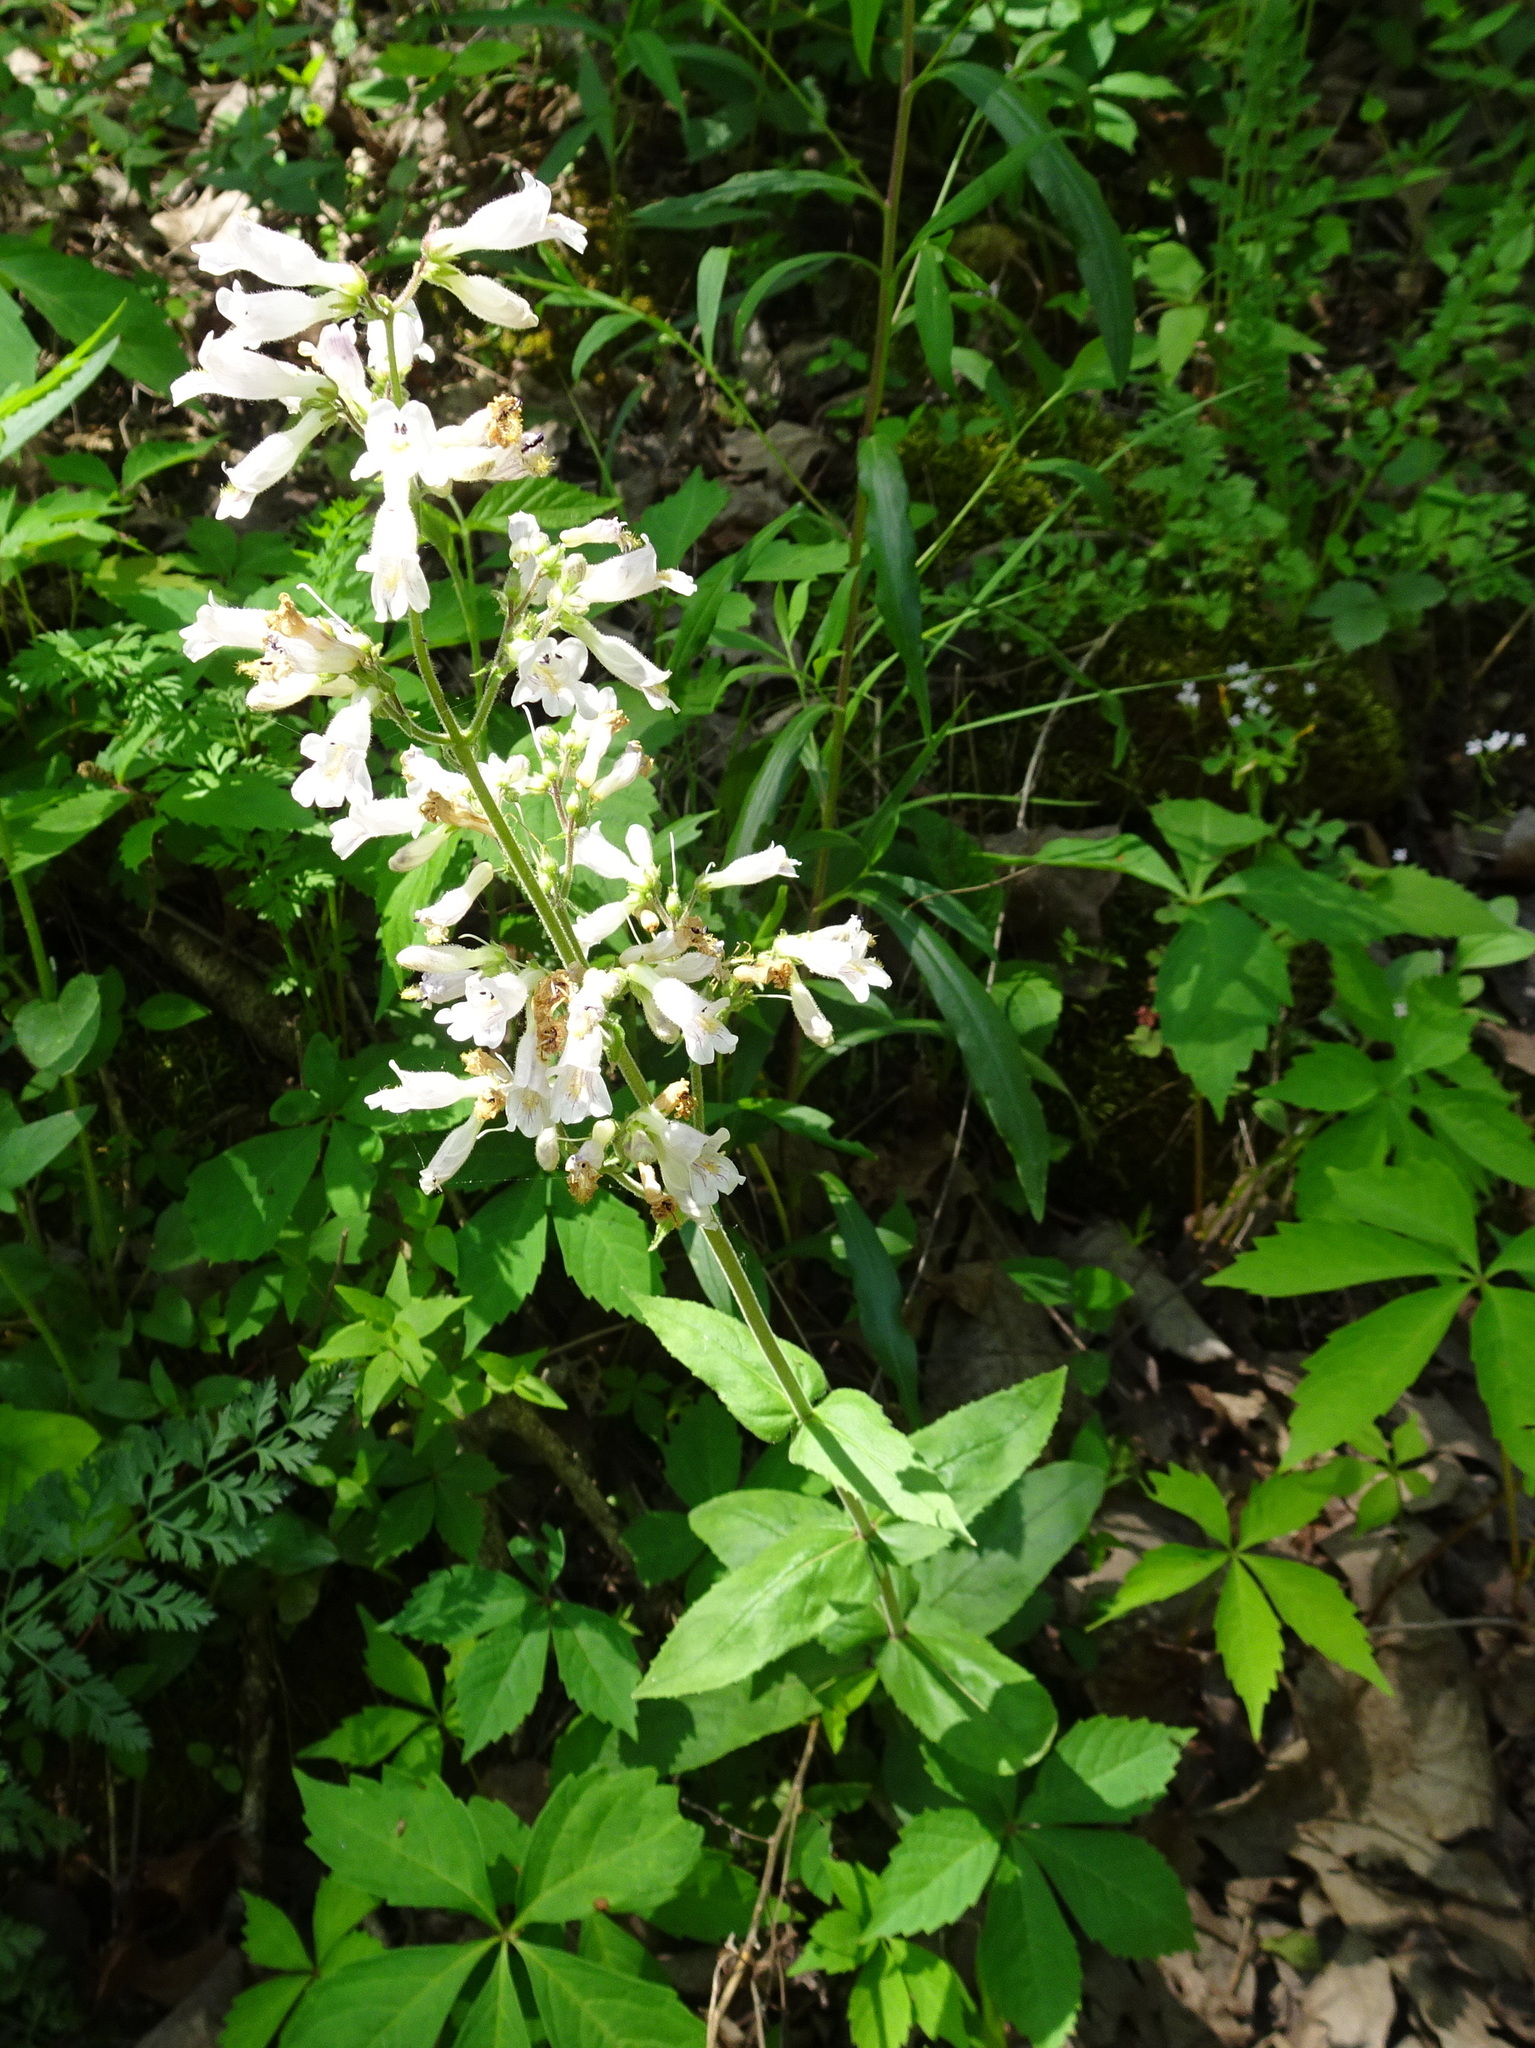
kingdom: Plantae
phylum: Tracheophyta
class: Magnoliopsida
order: Lamiales
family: Plantaginaceae
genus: Penstemon
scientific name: Penstemon pallidus
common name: Pale beardtongue
